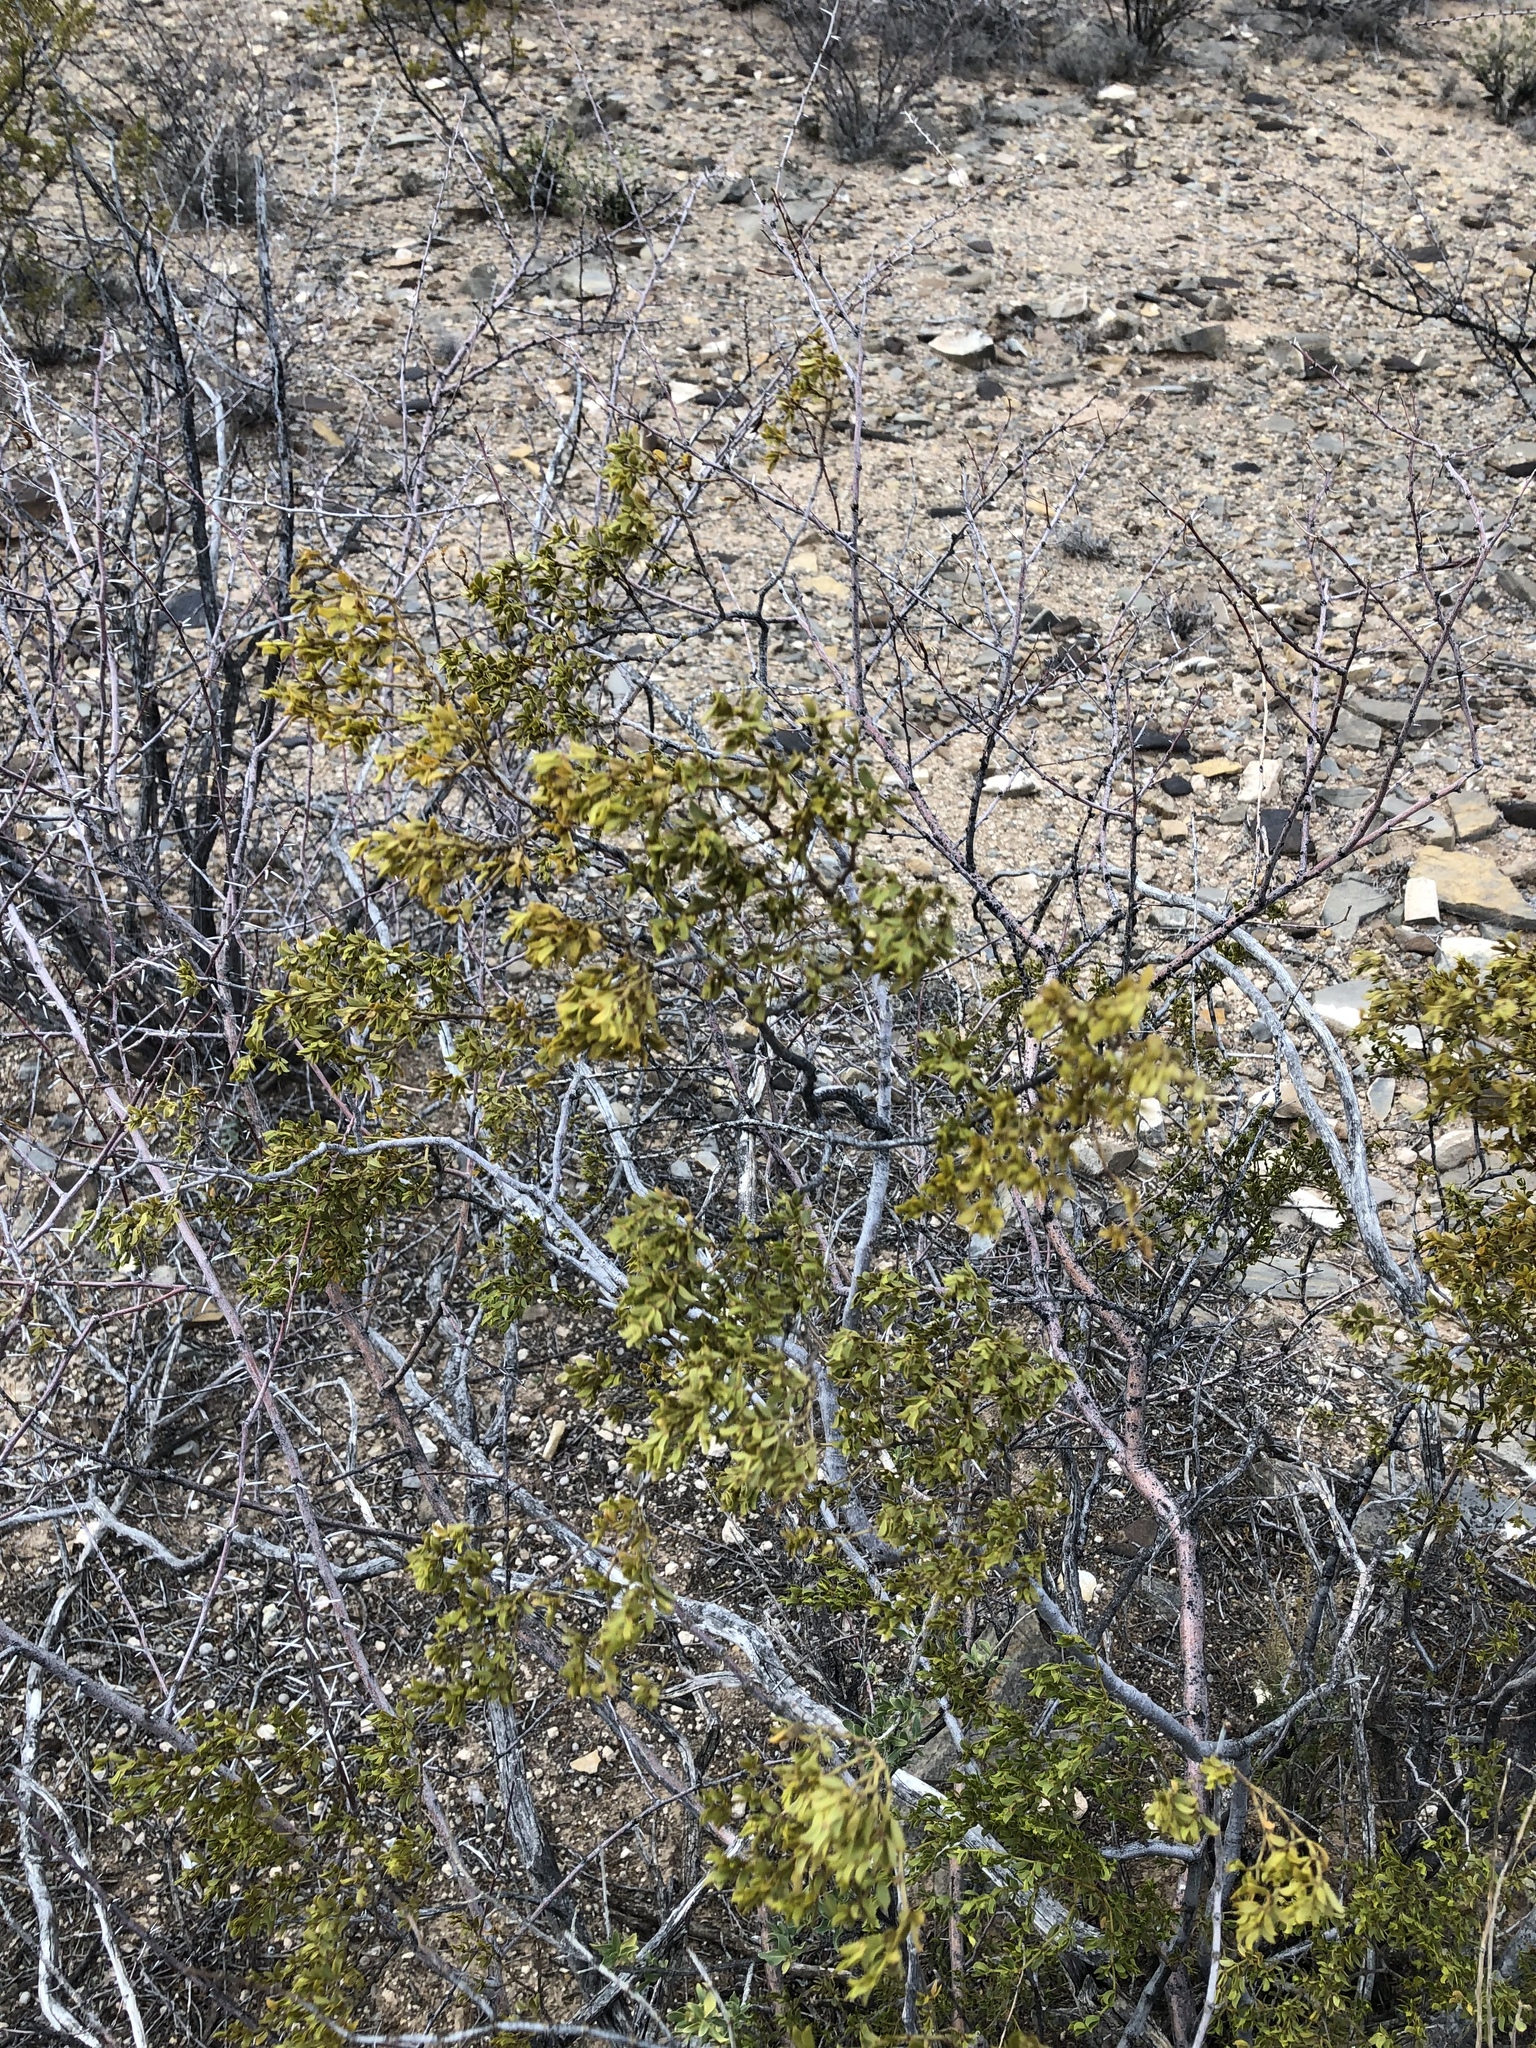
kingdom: Plantae
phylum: Tracheophyta
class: Magnoliopsida
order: Zygophyllales
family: Zygophyllaceae
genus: Larrea
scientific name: Larrea tridentata
